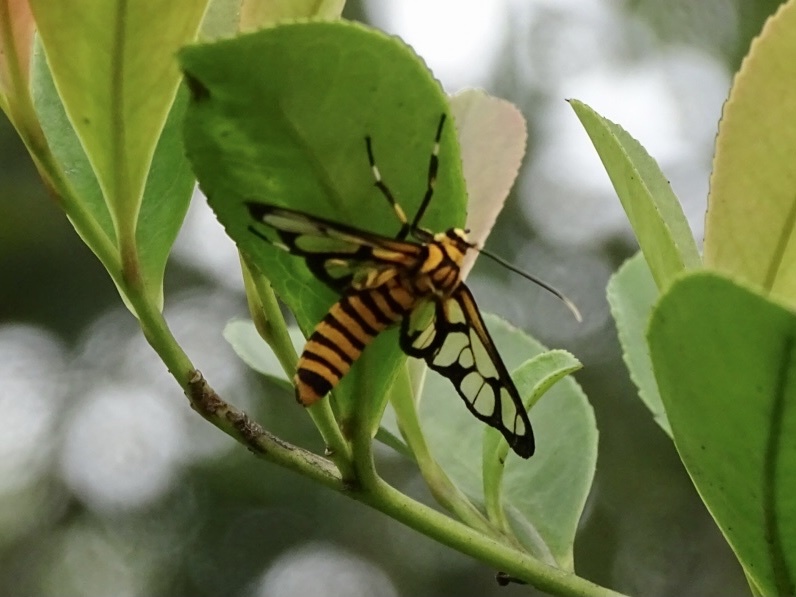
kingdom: Animalia
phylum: Arthropoda
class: Insecta
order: Lepidoptera
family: Erebidae
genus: Amata
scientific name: Amata grotei
